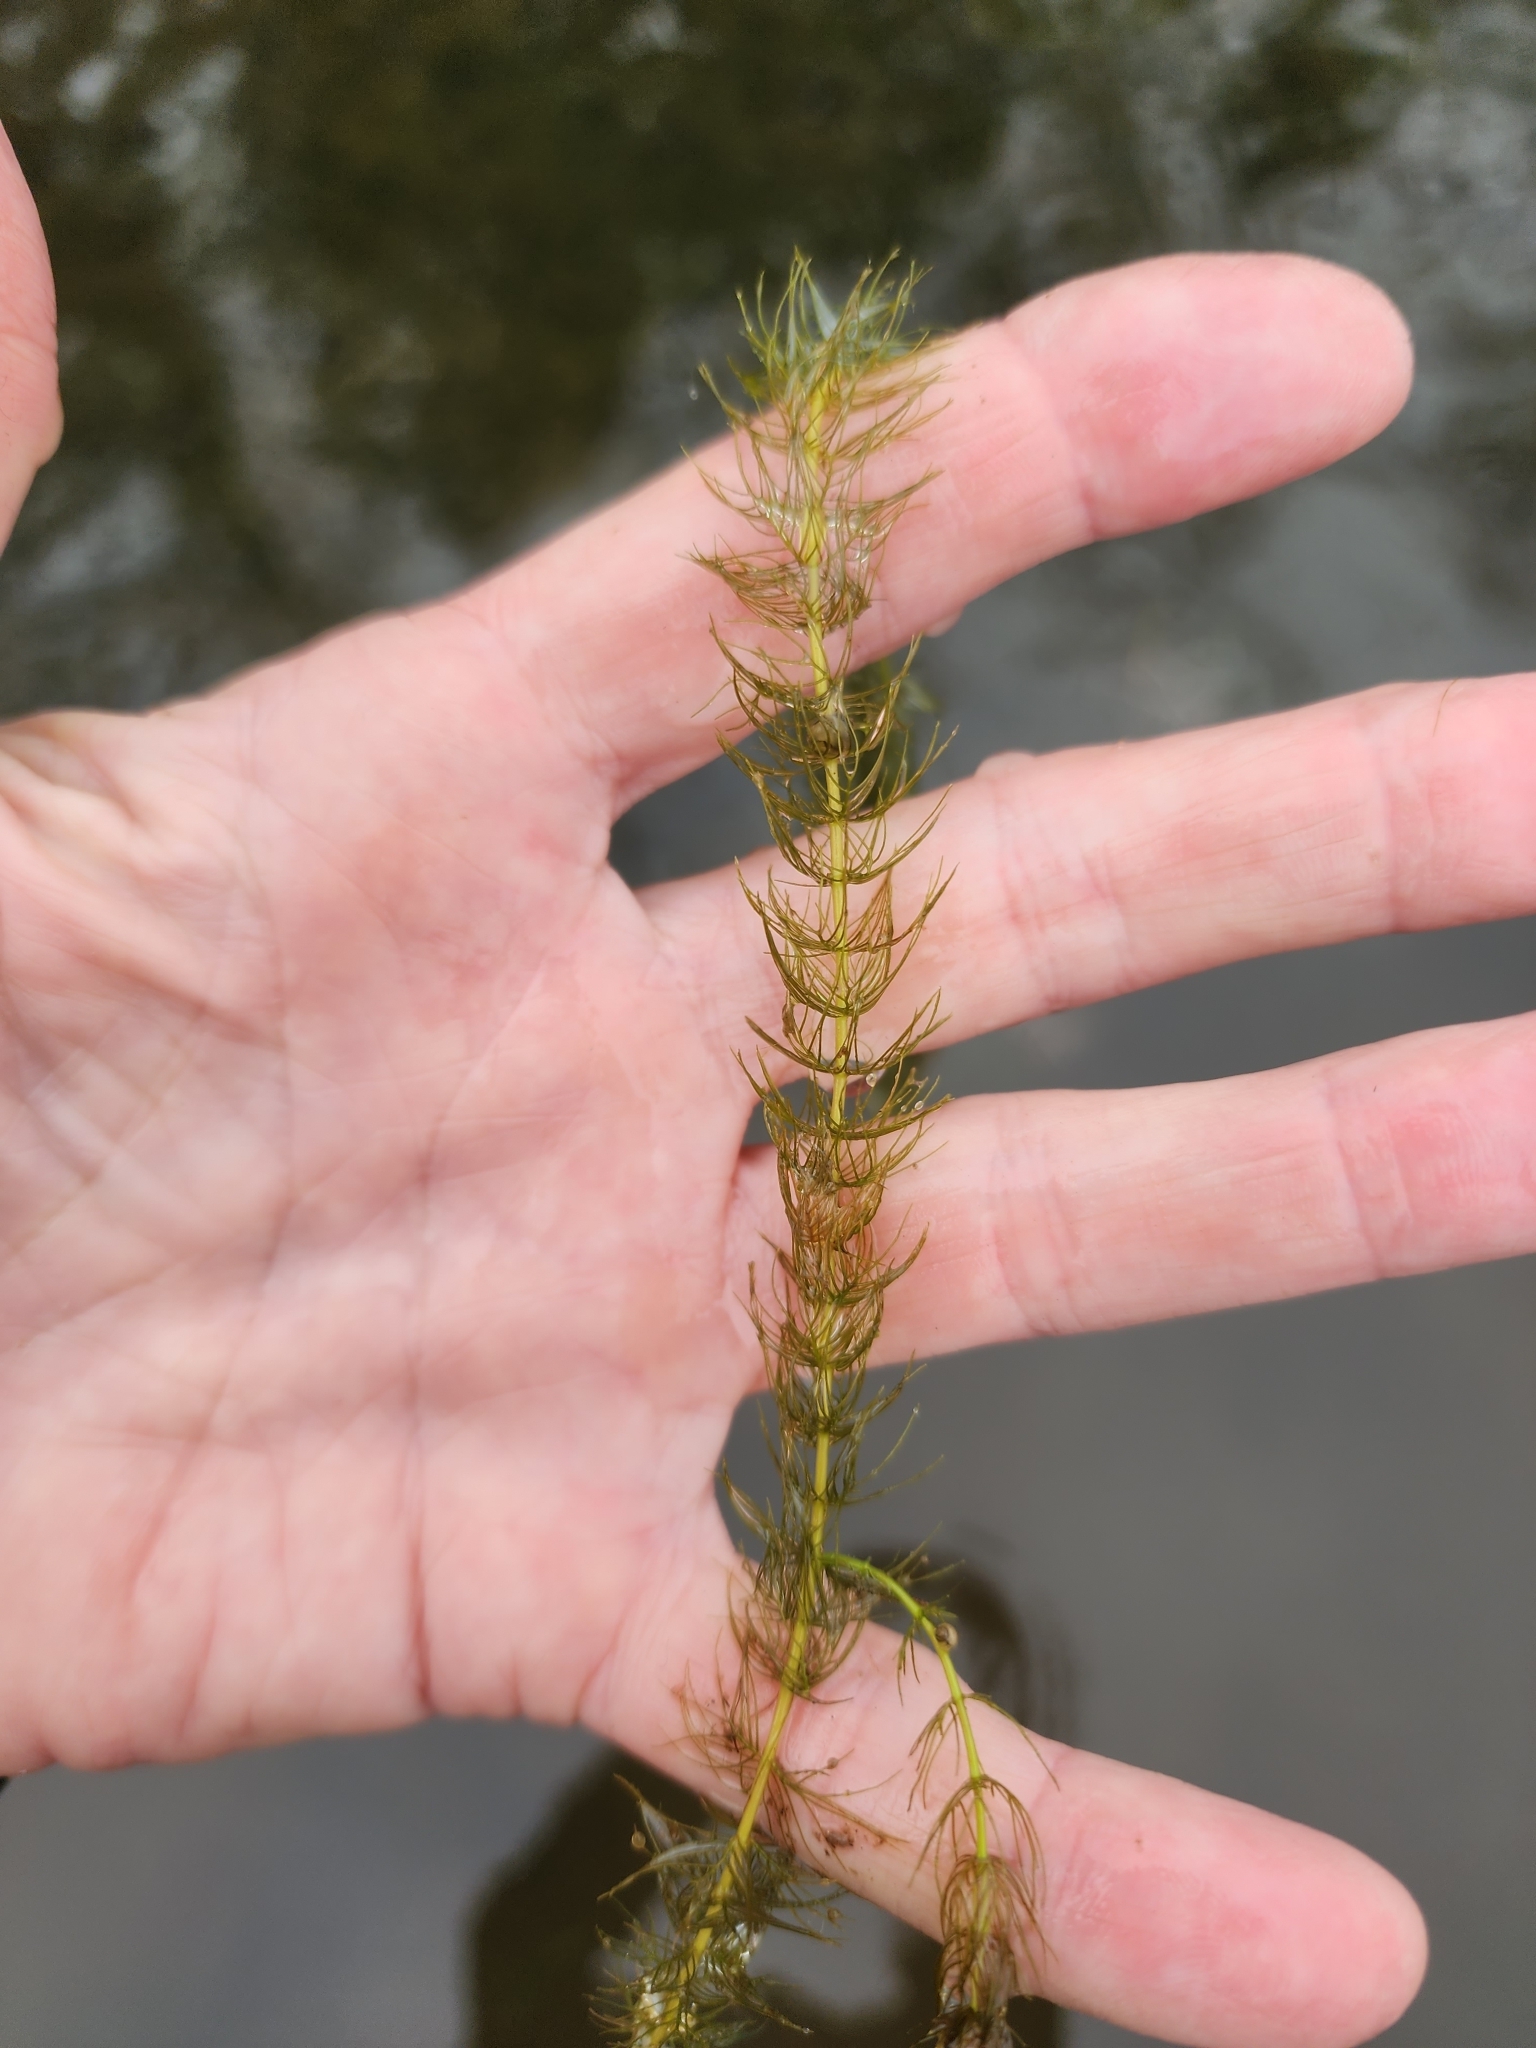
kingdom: Plantae
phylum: Tracheophyta
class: Magnoliopsida
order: Saxifragales
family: Haloragaceae
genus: Myriophyllum
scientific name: Myriophyllum alterniflorum
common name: Alternate water-milfoil
